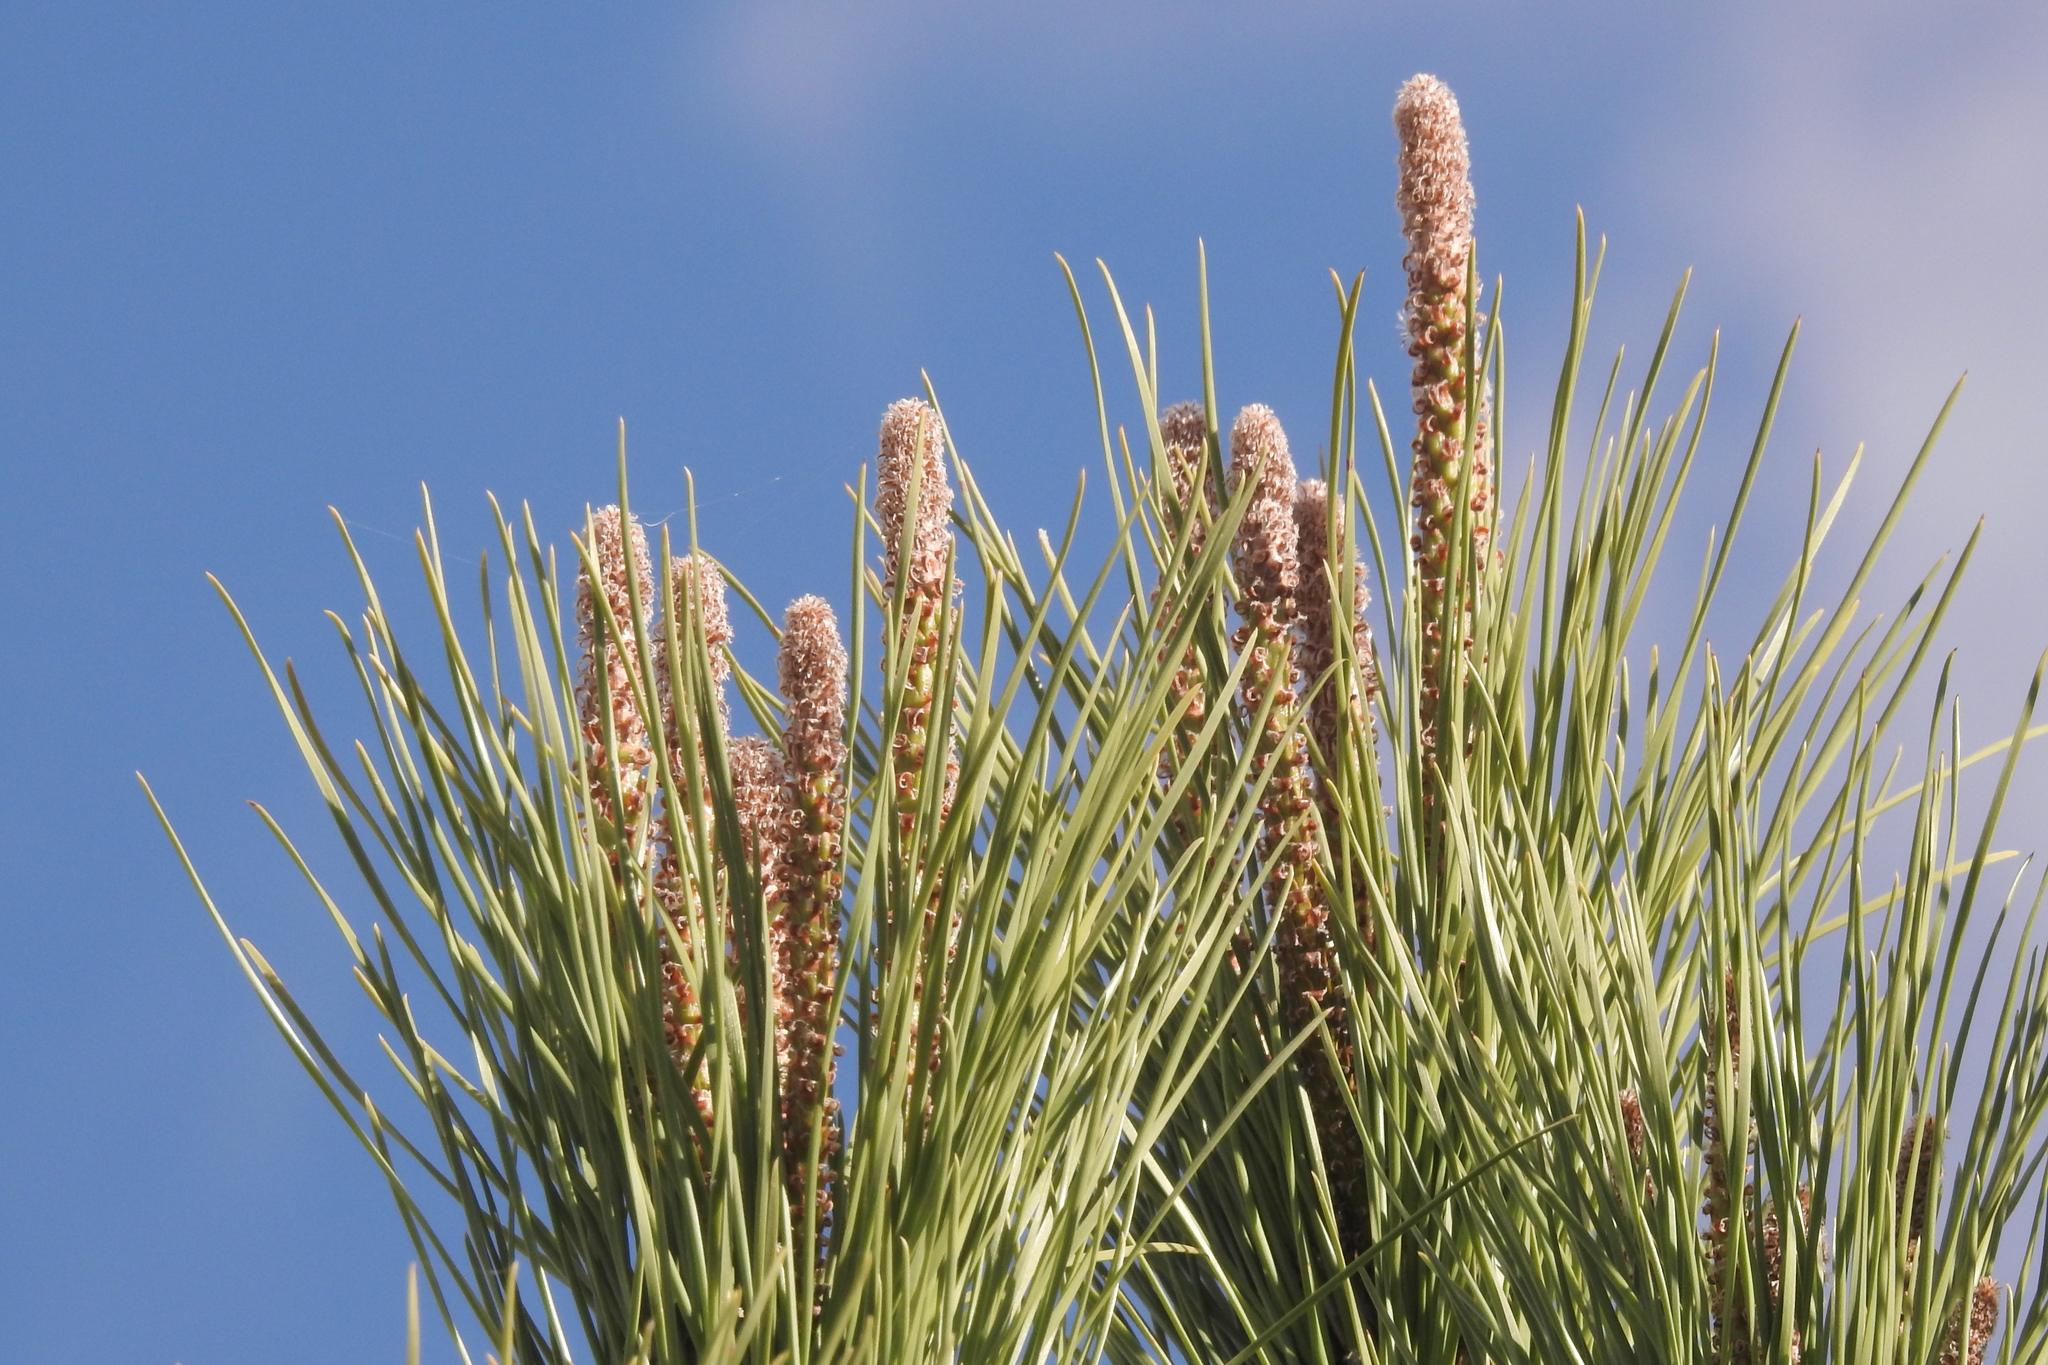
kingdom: Plantae
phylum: Tracheophyta
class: Pinopsida
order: Pinales
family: Pinaceae
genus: Pinus
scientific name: Pinus pinea
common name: Italian stone pine
